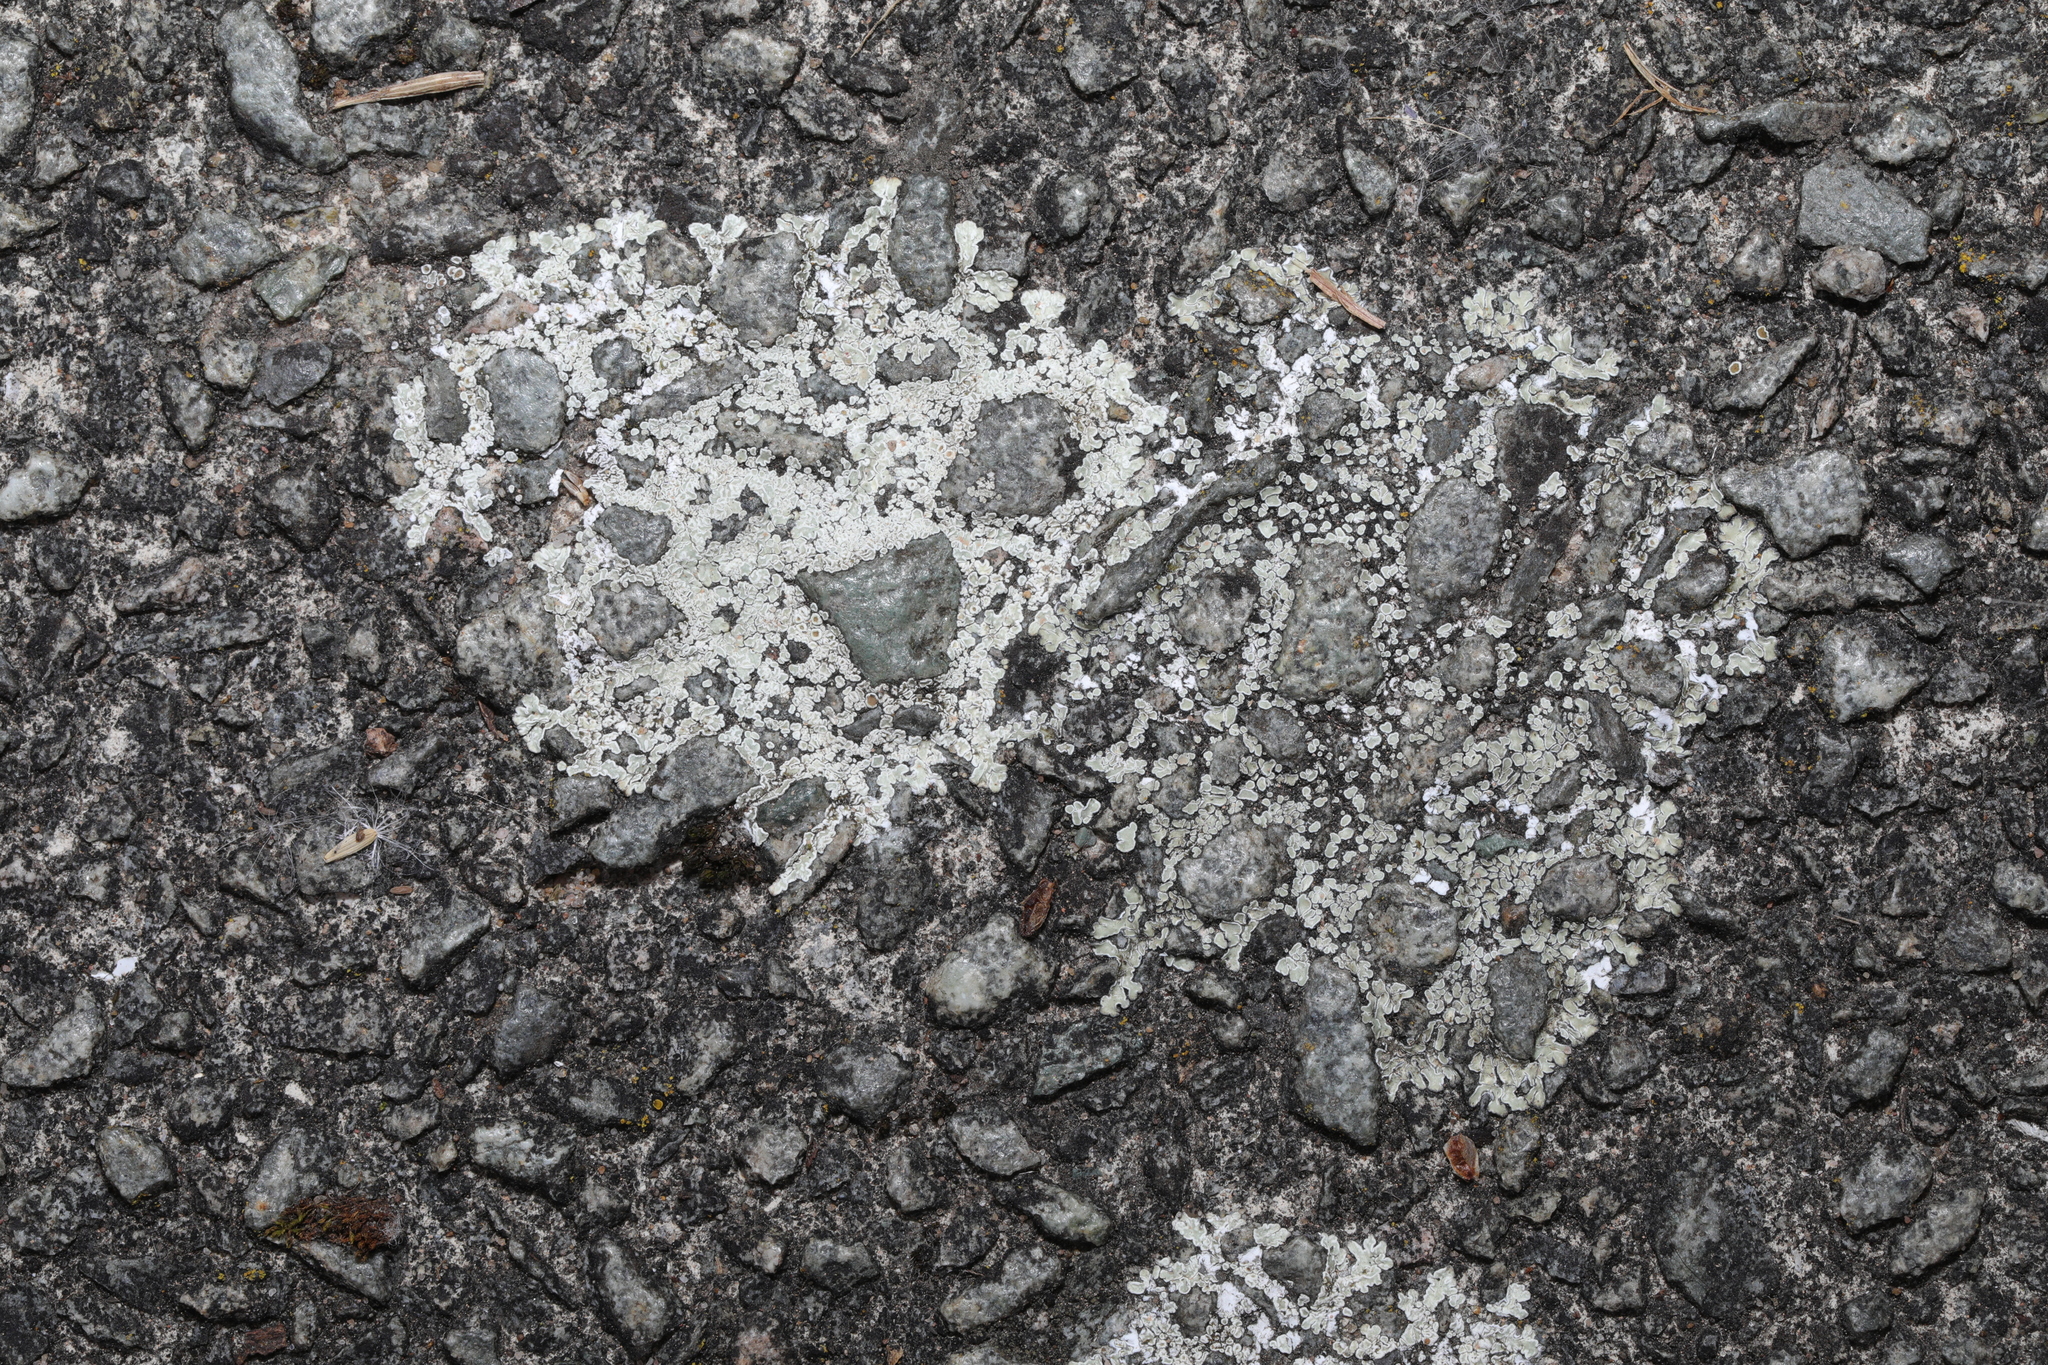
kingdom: Fungi
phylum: Ascomycota
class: Lecanoromycetes
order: Lecanorales
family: Lecanoraceae
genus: Protoparmeliopsis
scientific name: Protoparmeliopsis muralis
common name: Stonewall rim lichen
